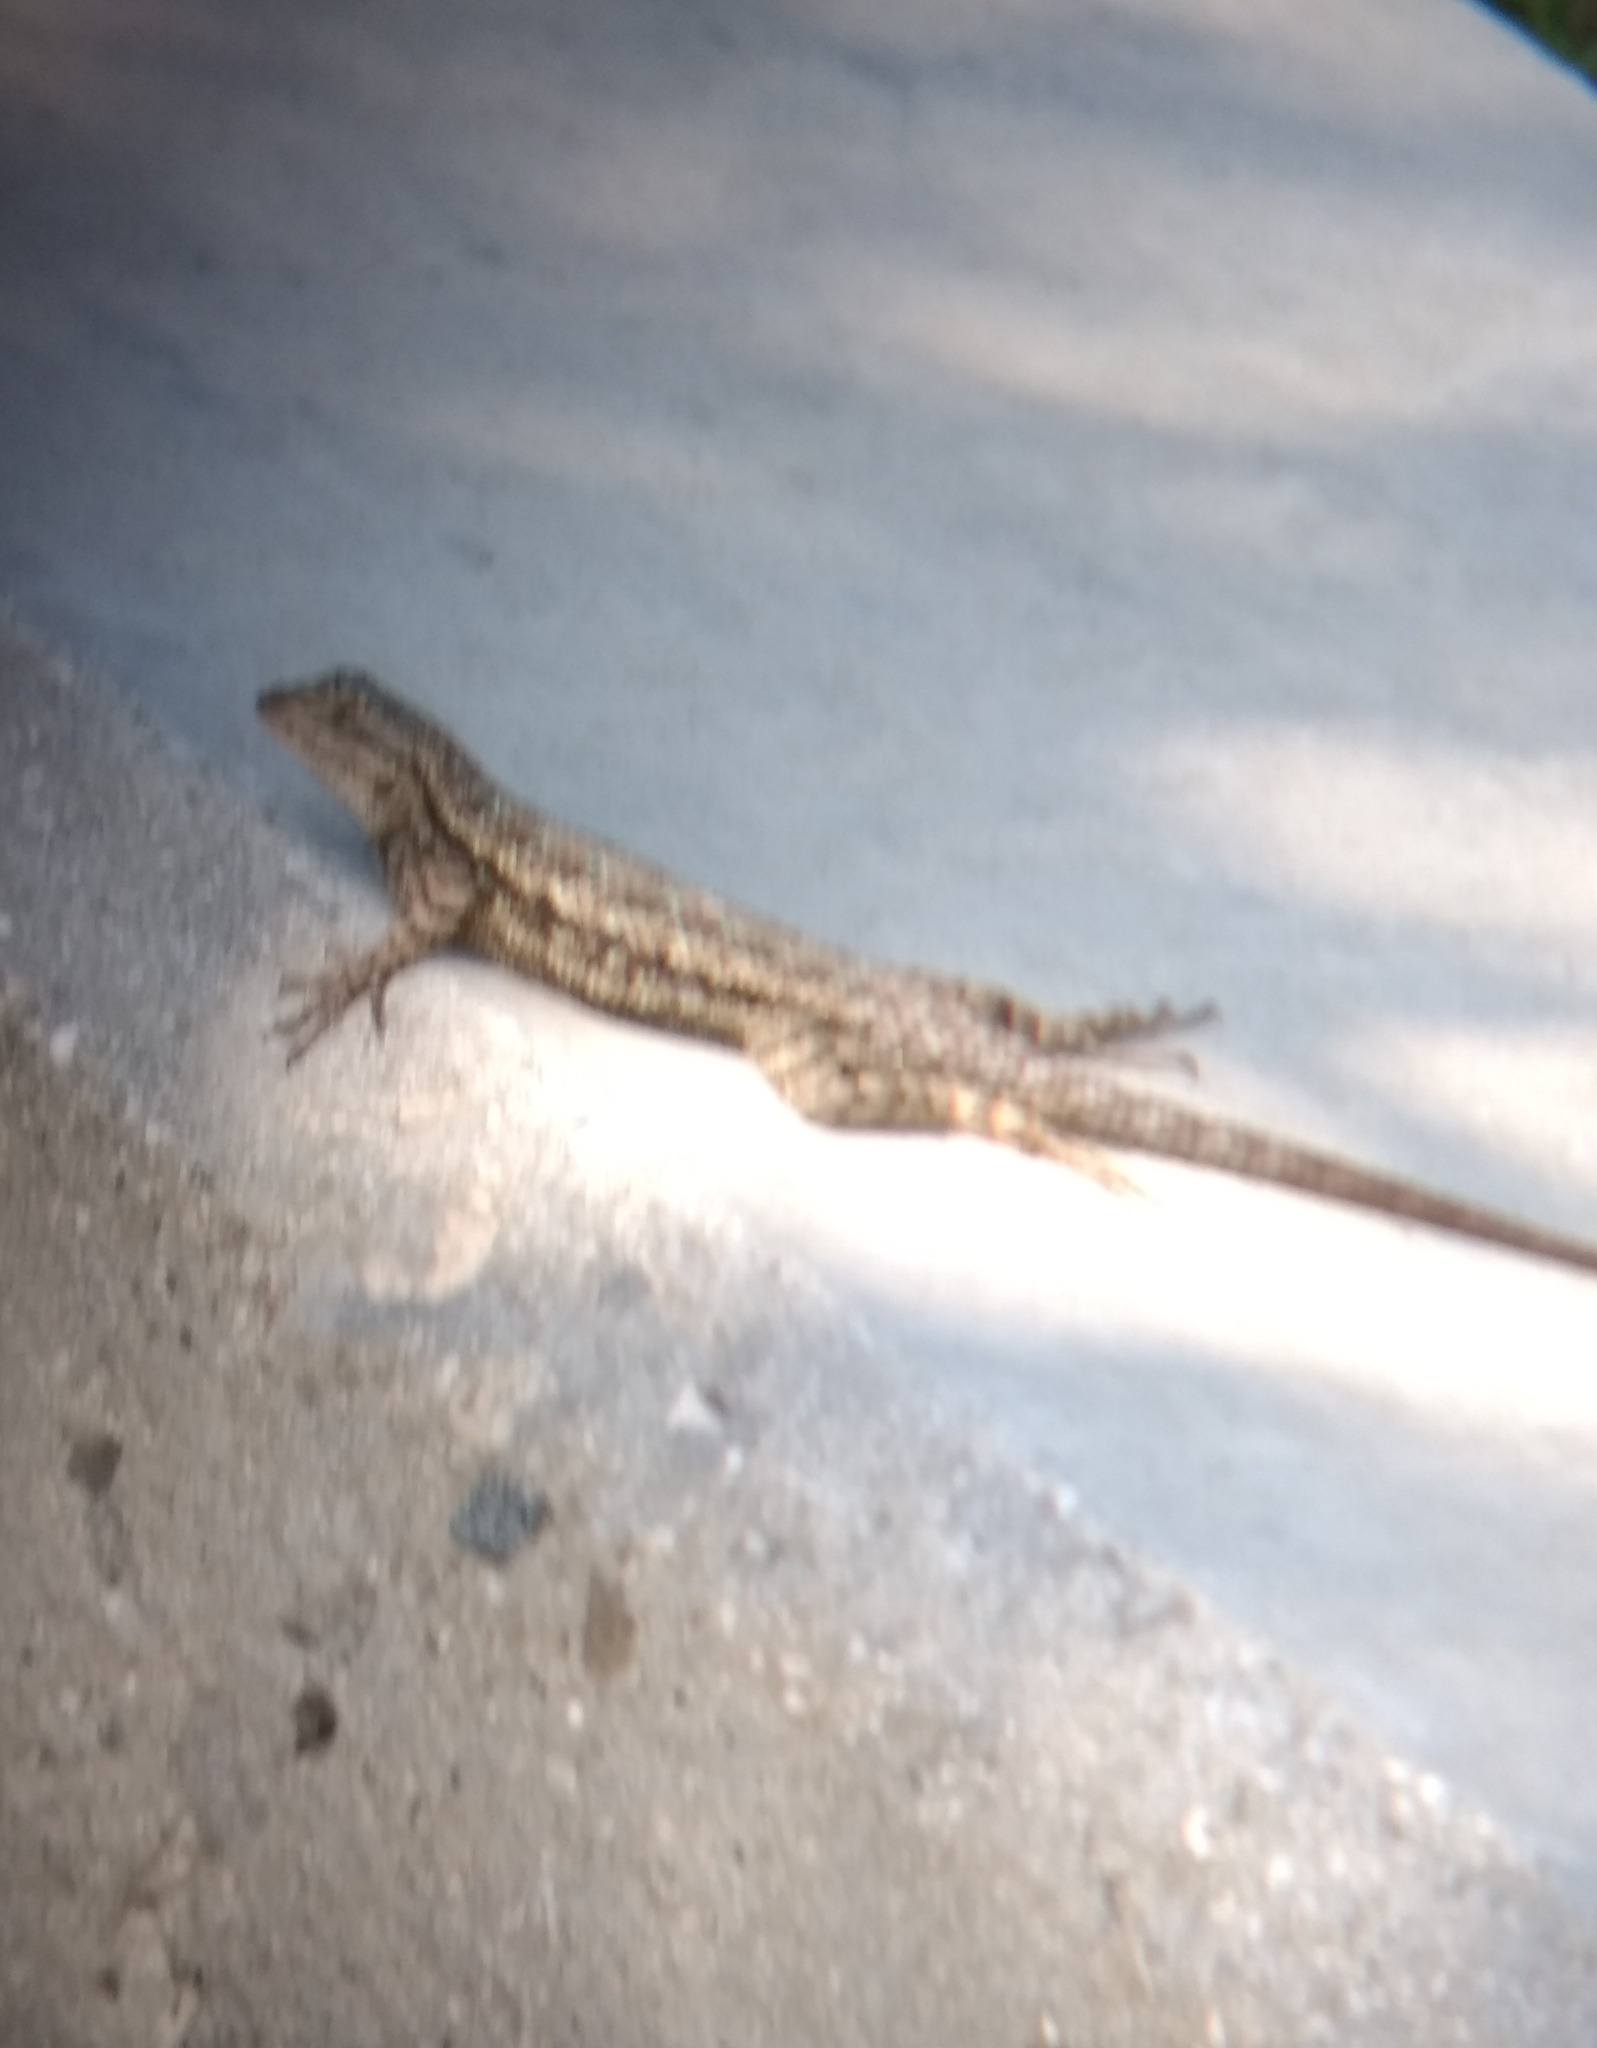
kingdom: Animalia
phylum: Chordata
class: Squamata
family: Phrynosomatidae
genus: Sceloporus
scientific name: Sceloporus occidentalis
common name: Western fence lizard
